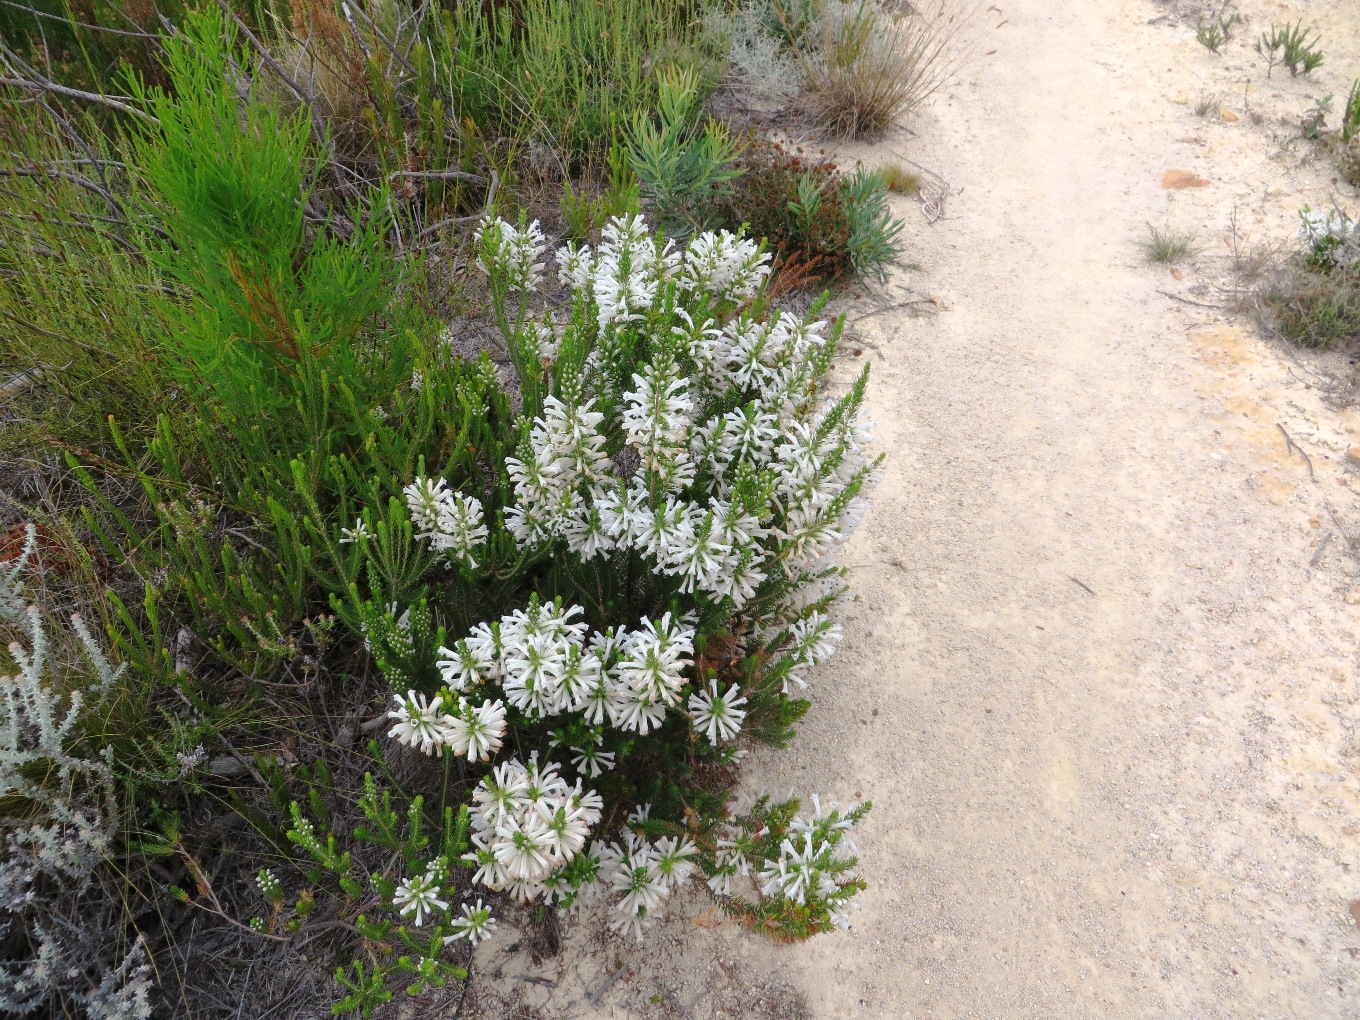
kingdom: Plantae
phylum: Tracheophyta
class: Magnoliopsida
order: Ericales
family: Ericaceae
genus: Erica
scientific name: Erica pinea
